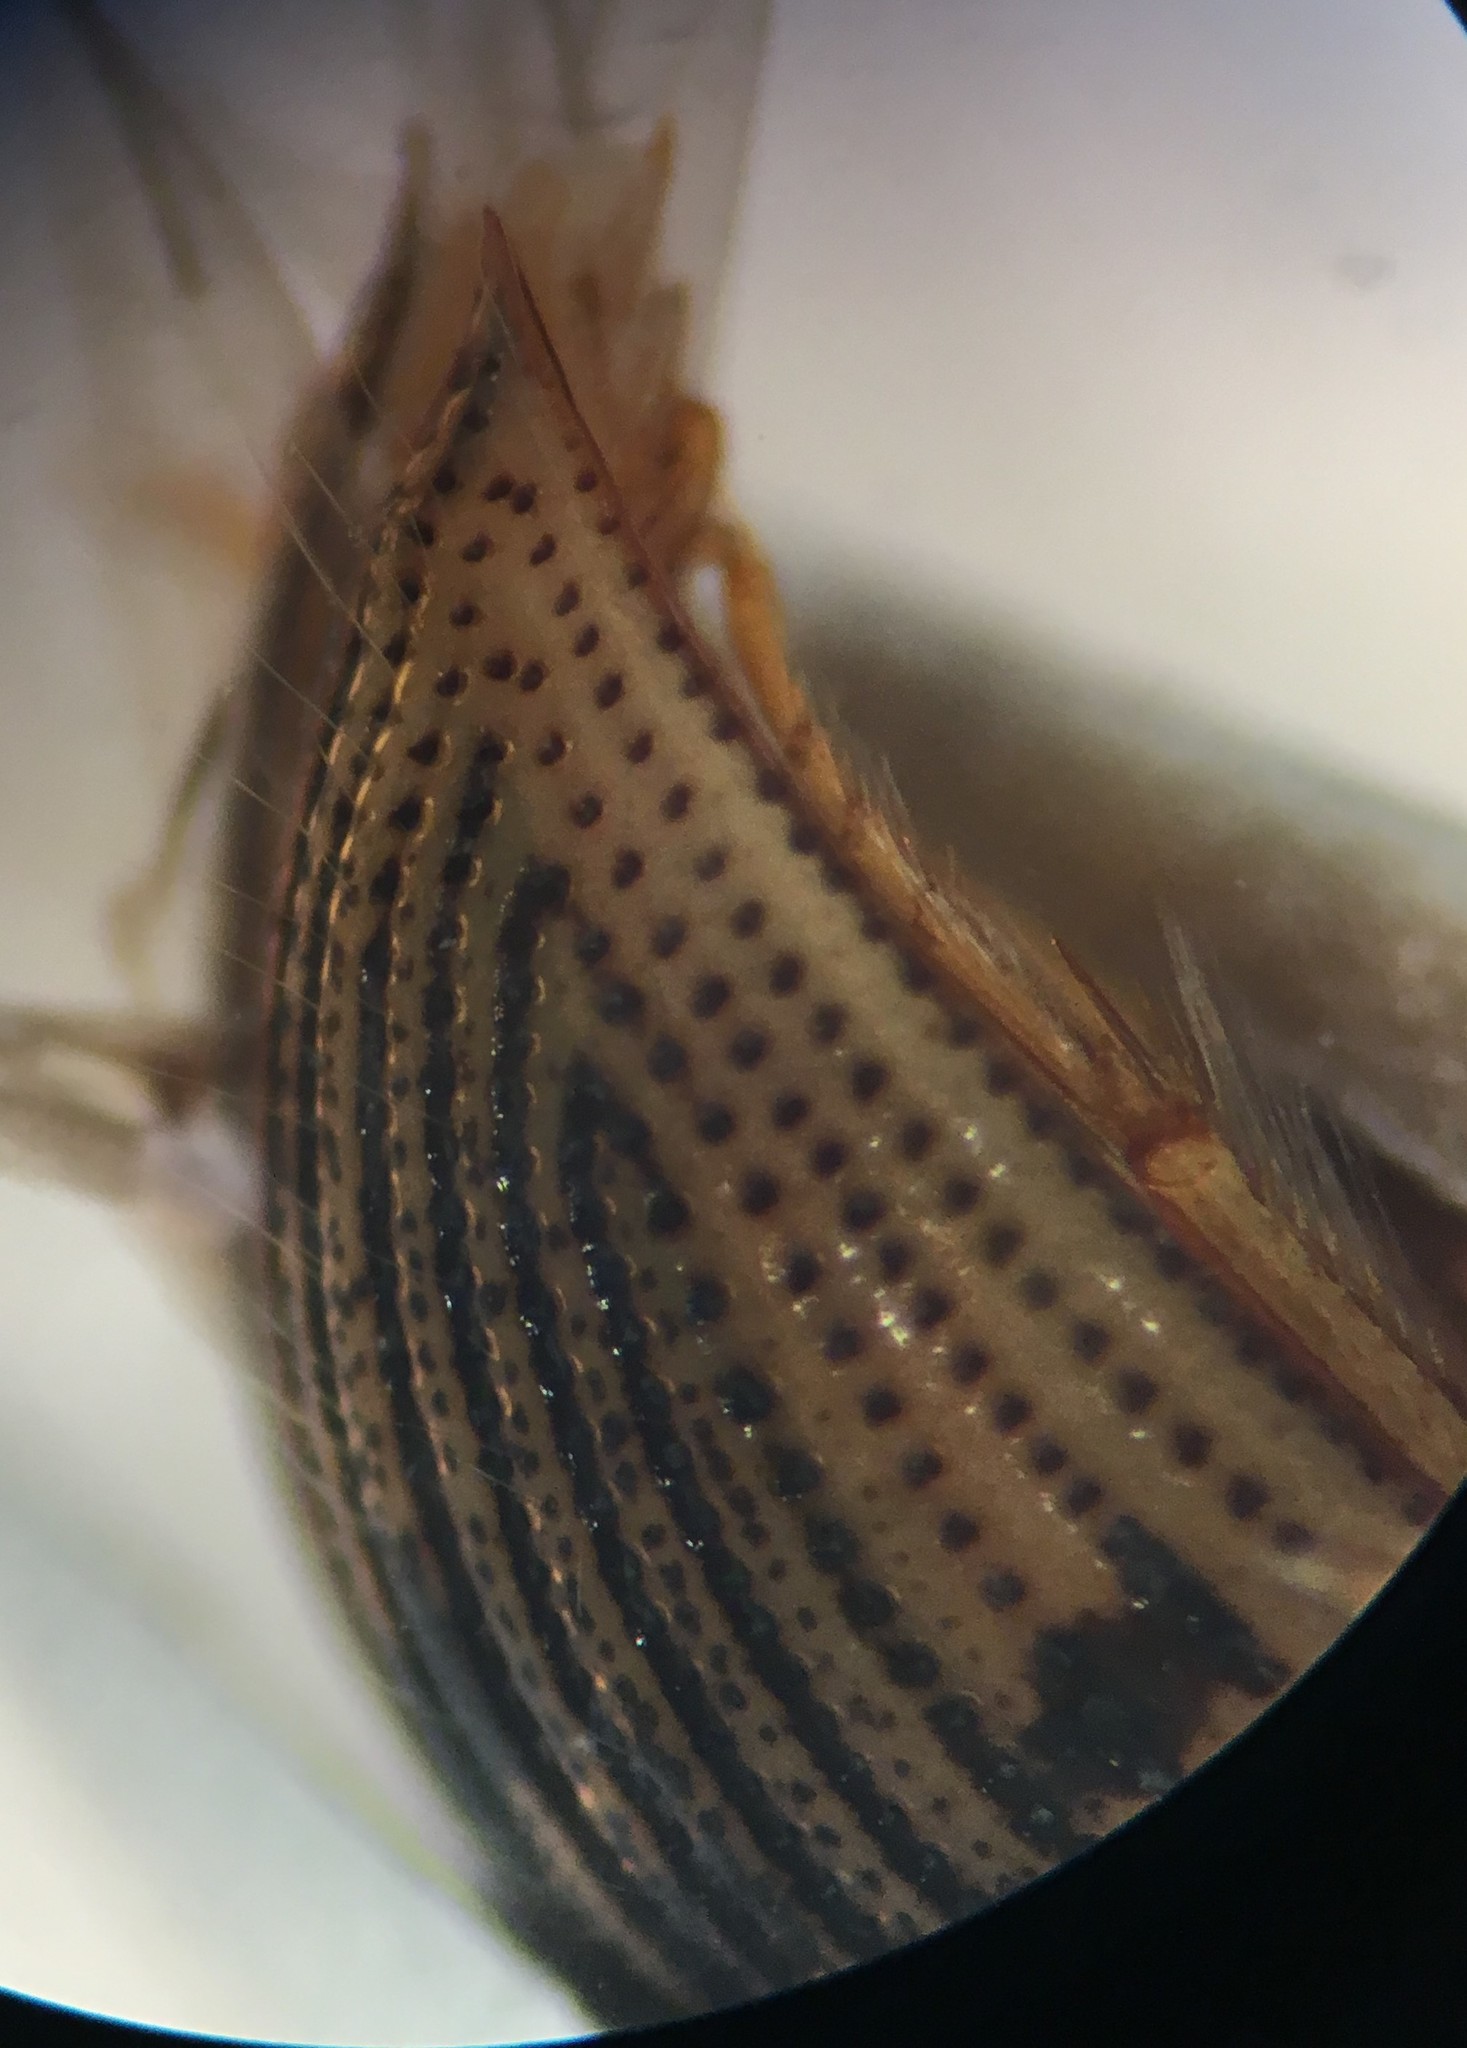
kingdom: Animalia
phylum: Arthropoda
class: Insecta
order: Coleoptera
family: Hydrophilidae
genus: Berosus
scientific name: Berosus aculeatus
